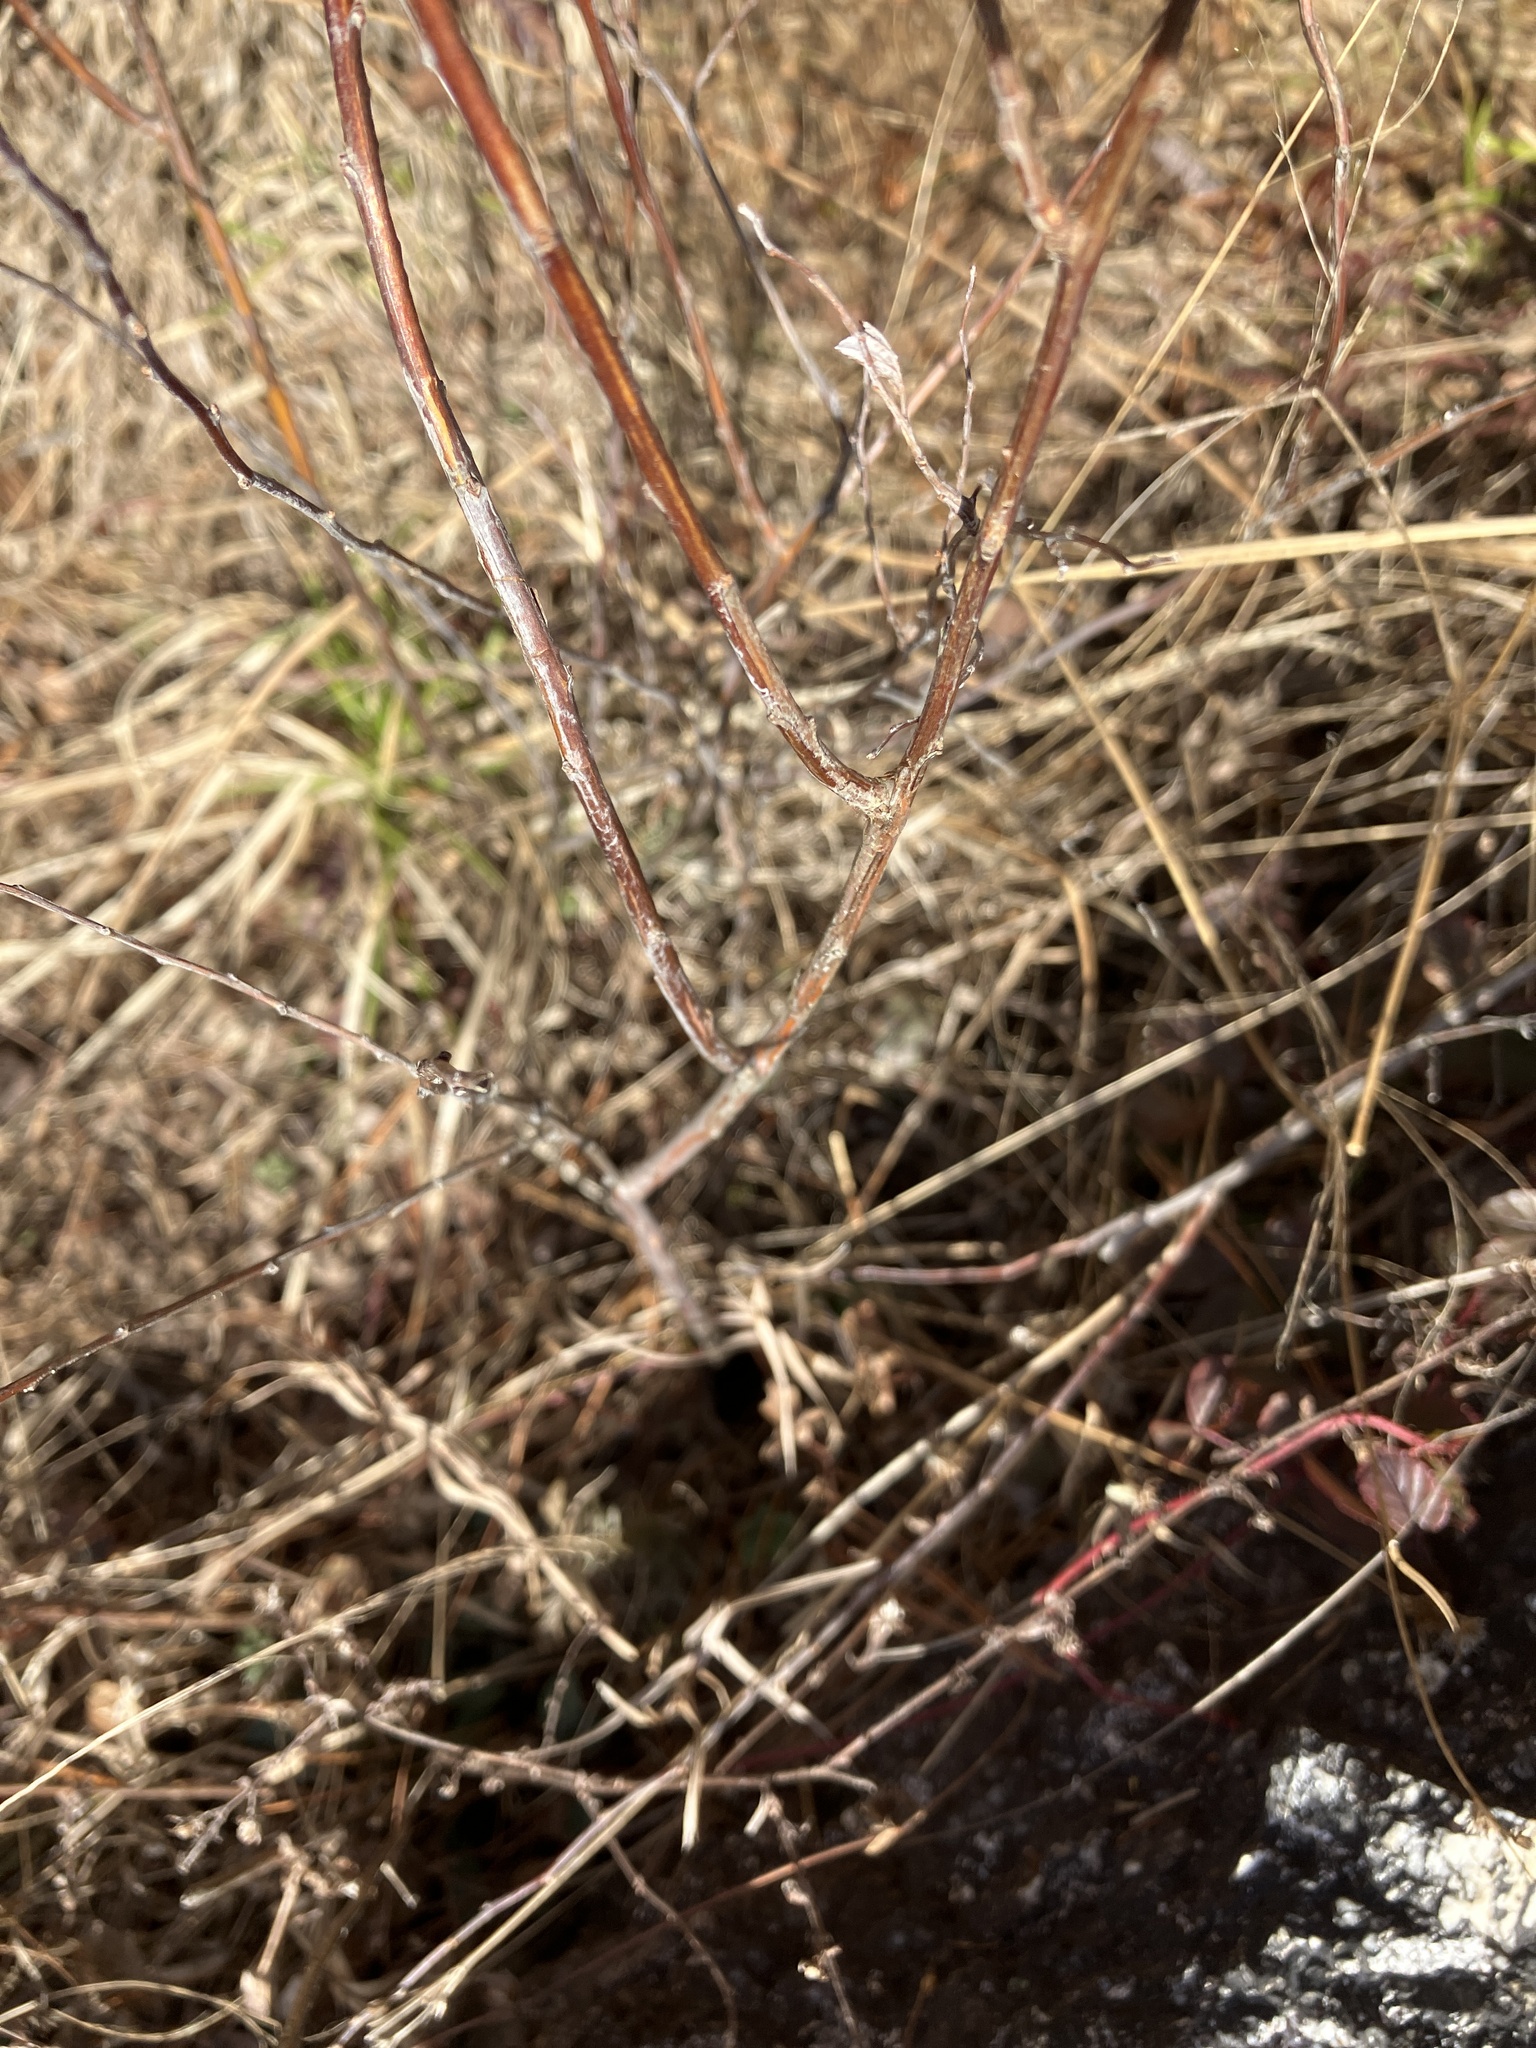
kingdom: Plantae
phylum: Tracheophyta
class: Magnoliopsida
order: Rosales
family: Rosaceae
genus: Spiraea
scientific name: Spiraea tomentosa
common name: Hardhack
